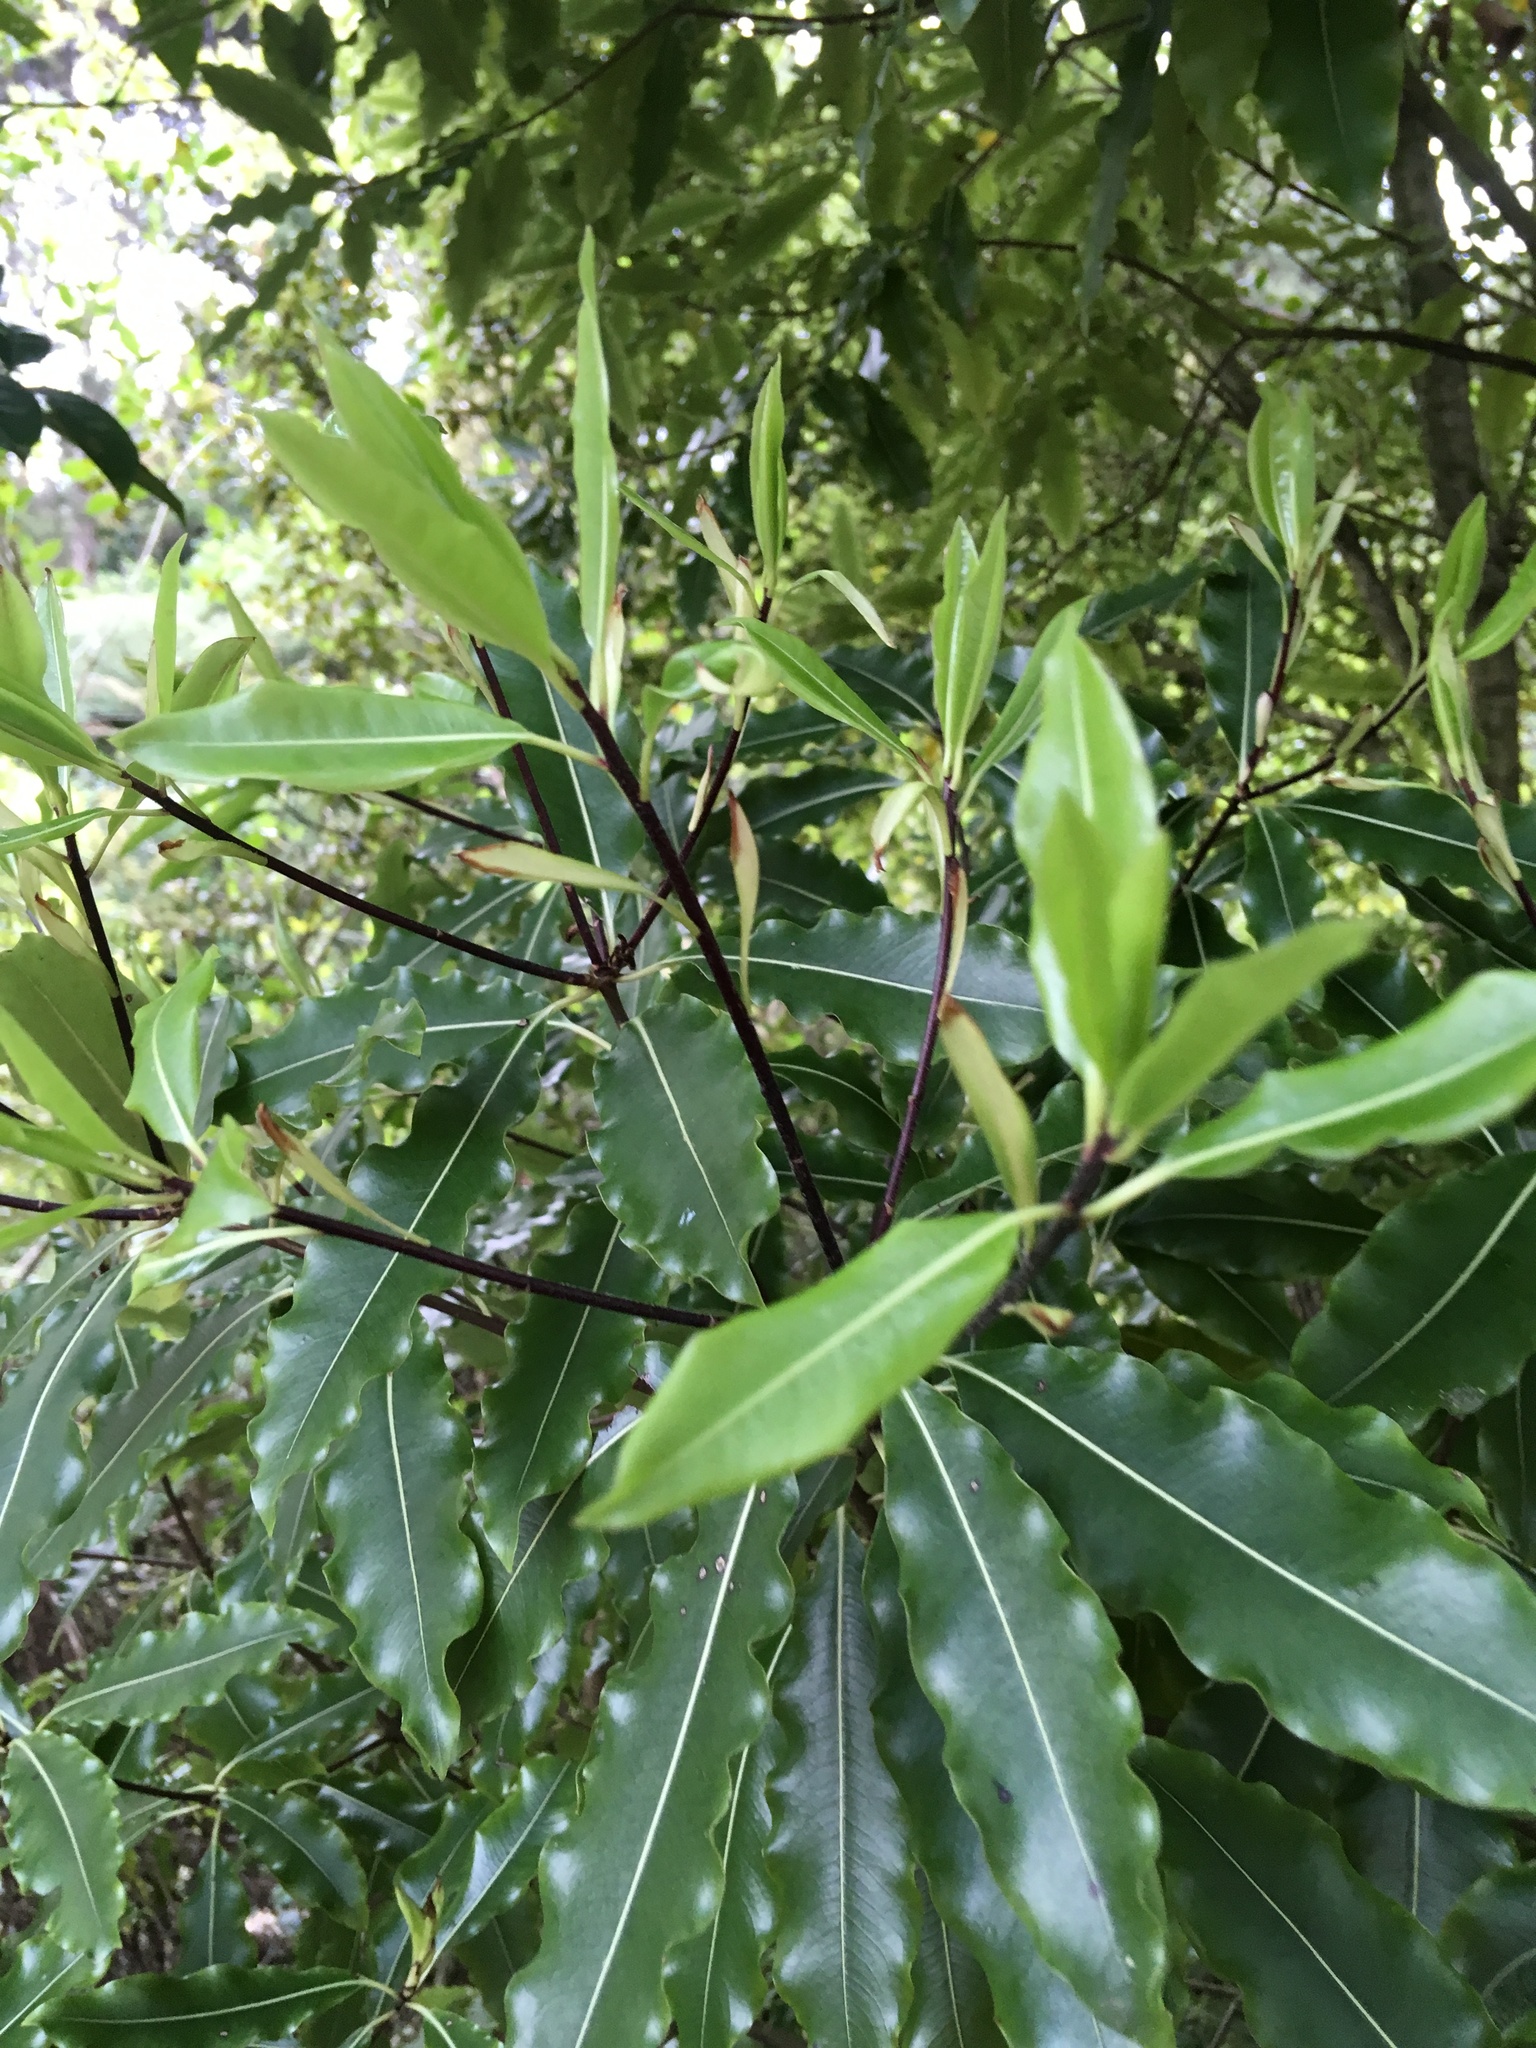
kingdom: Plantae
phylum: Tracheophyta
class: Magnoliopsida
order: Apiales
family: Pittosporaceae
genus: Pittosporum
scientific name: Pittosporum eugenioides
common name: Lemonwood
